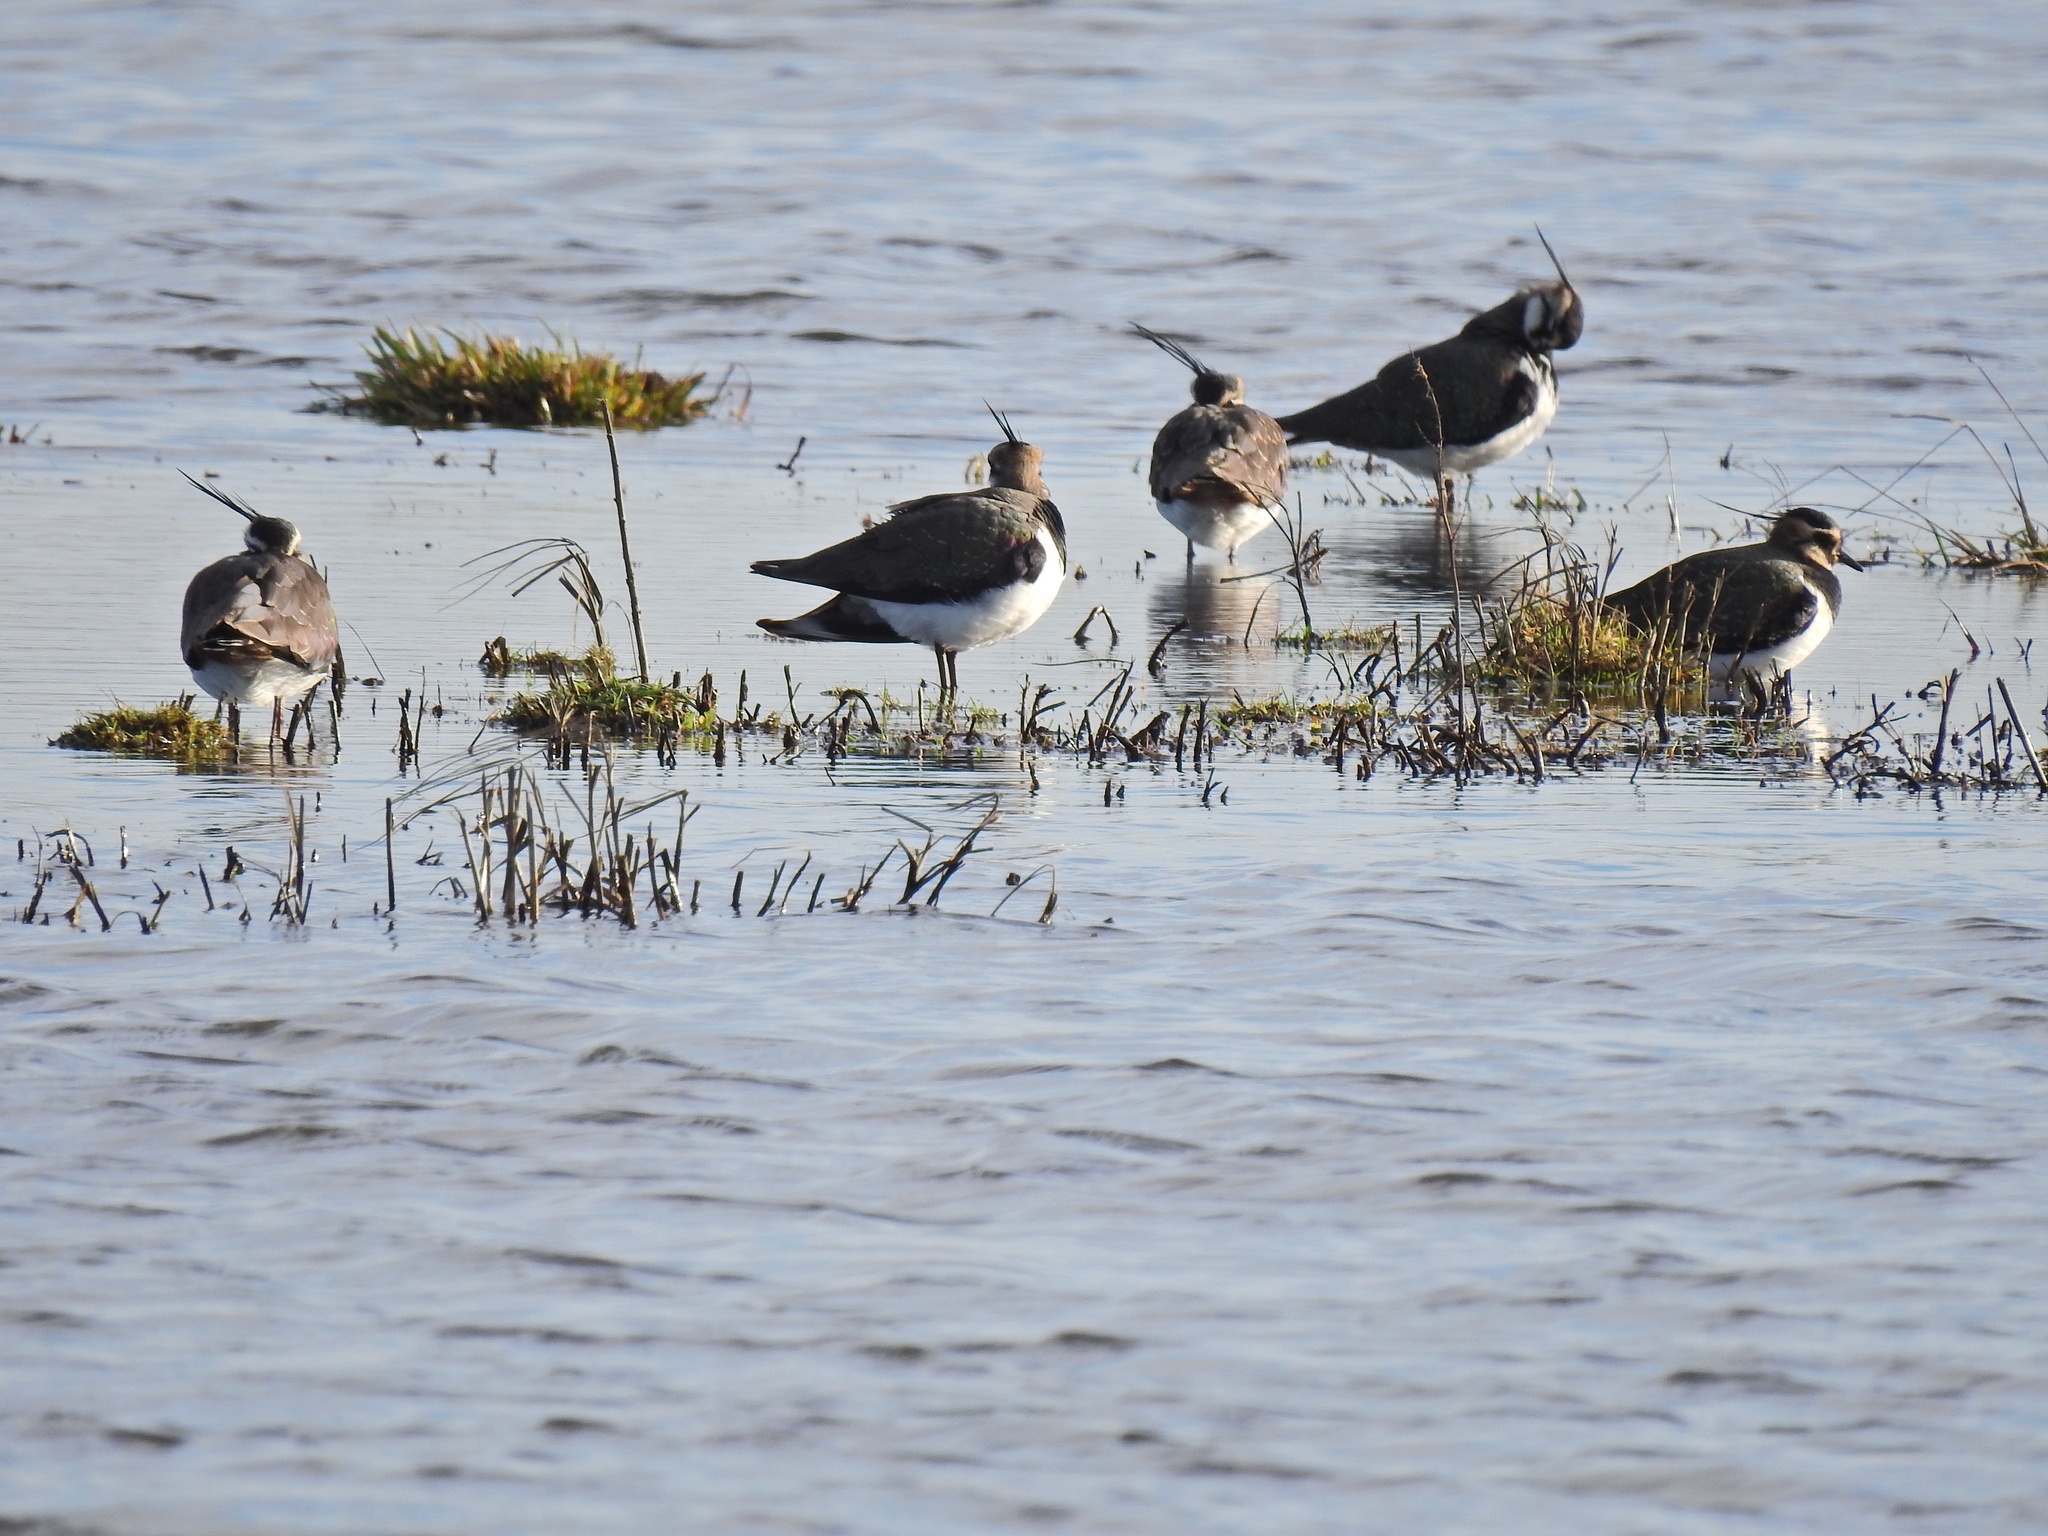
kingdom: Animalia
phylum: Chordata
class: Aves
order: Charadriiformes
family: Charadriidae
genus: Vanellus
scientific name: Vanellus vanellus
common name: Northern lapwing
